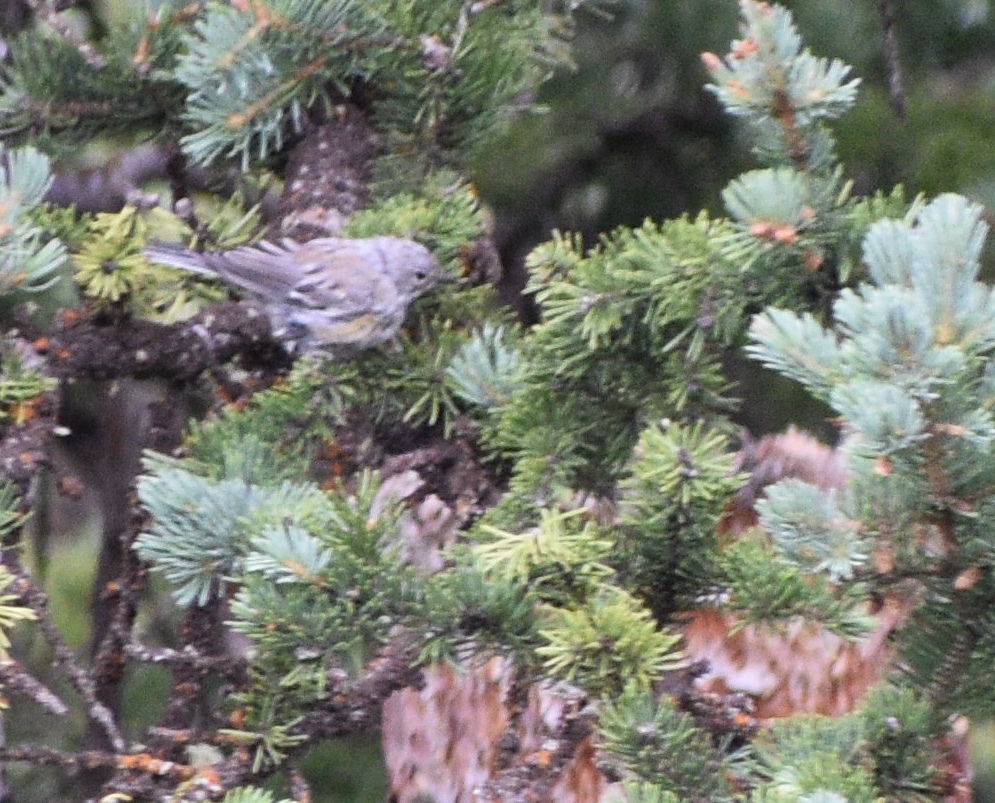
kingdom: Animalia
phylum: Chordata
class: Aves
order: Passeriformes
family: Parulidae
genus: Setophaga
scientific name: Setophaga coronata
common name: Myrtle warbler
